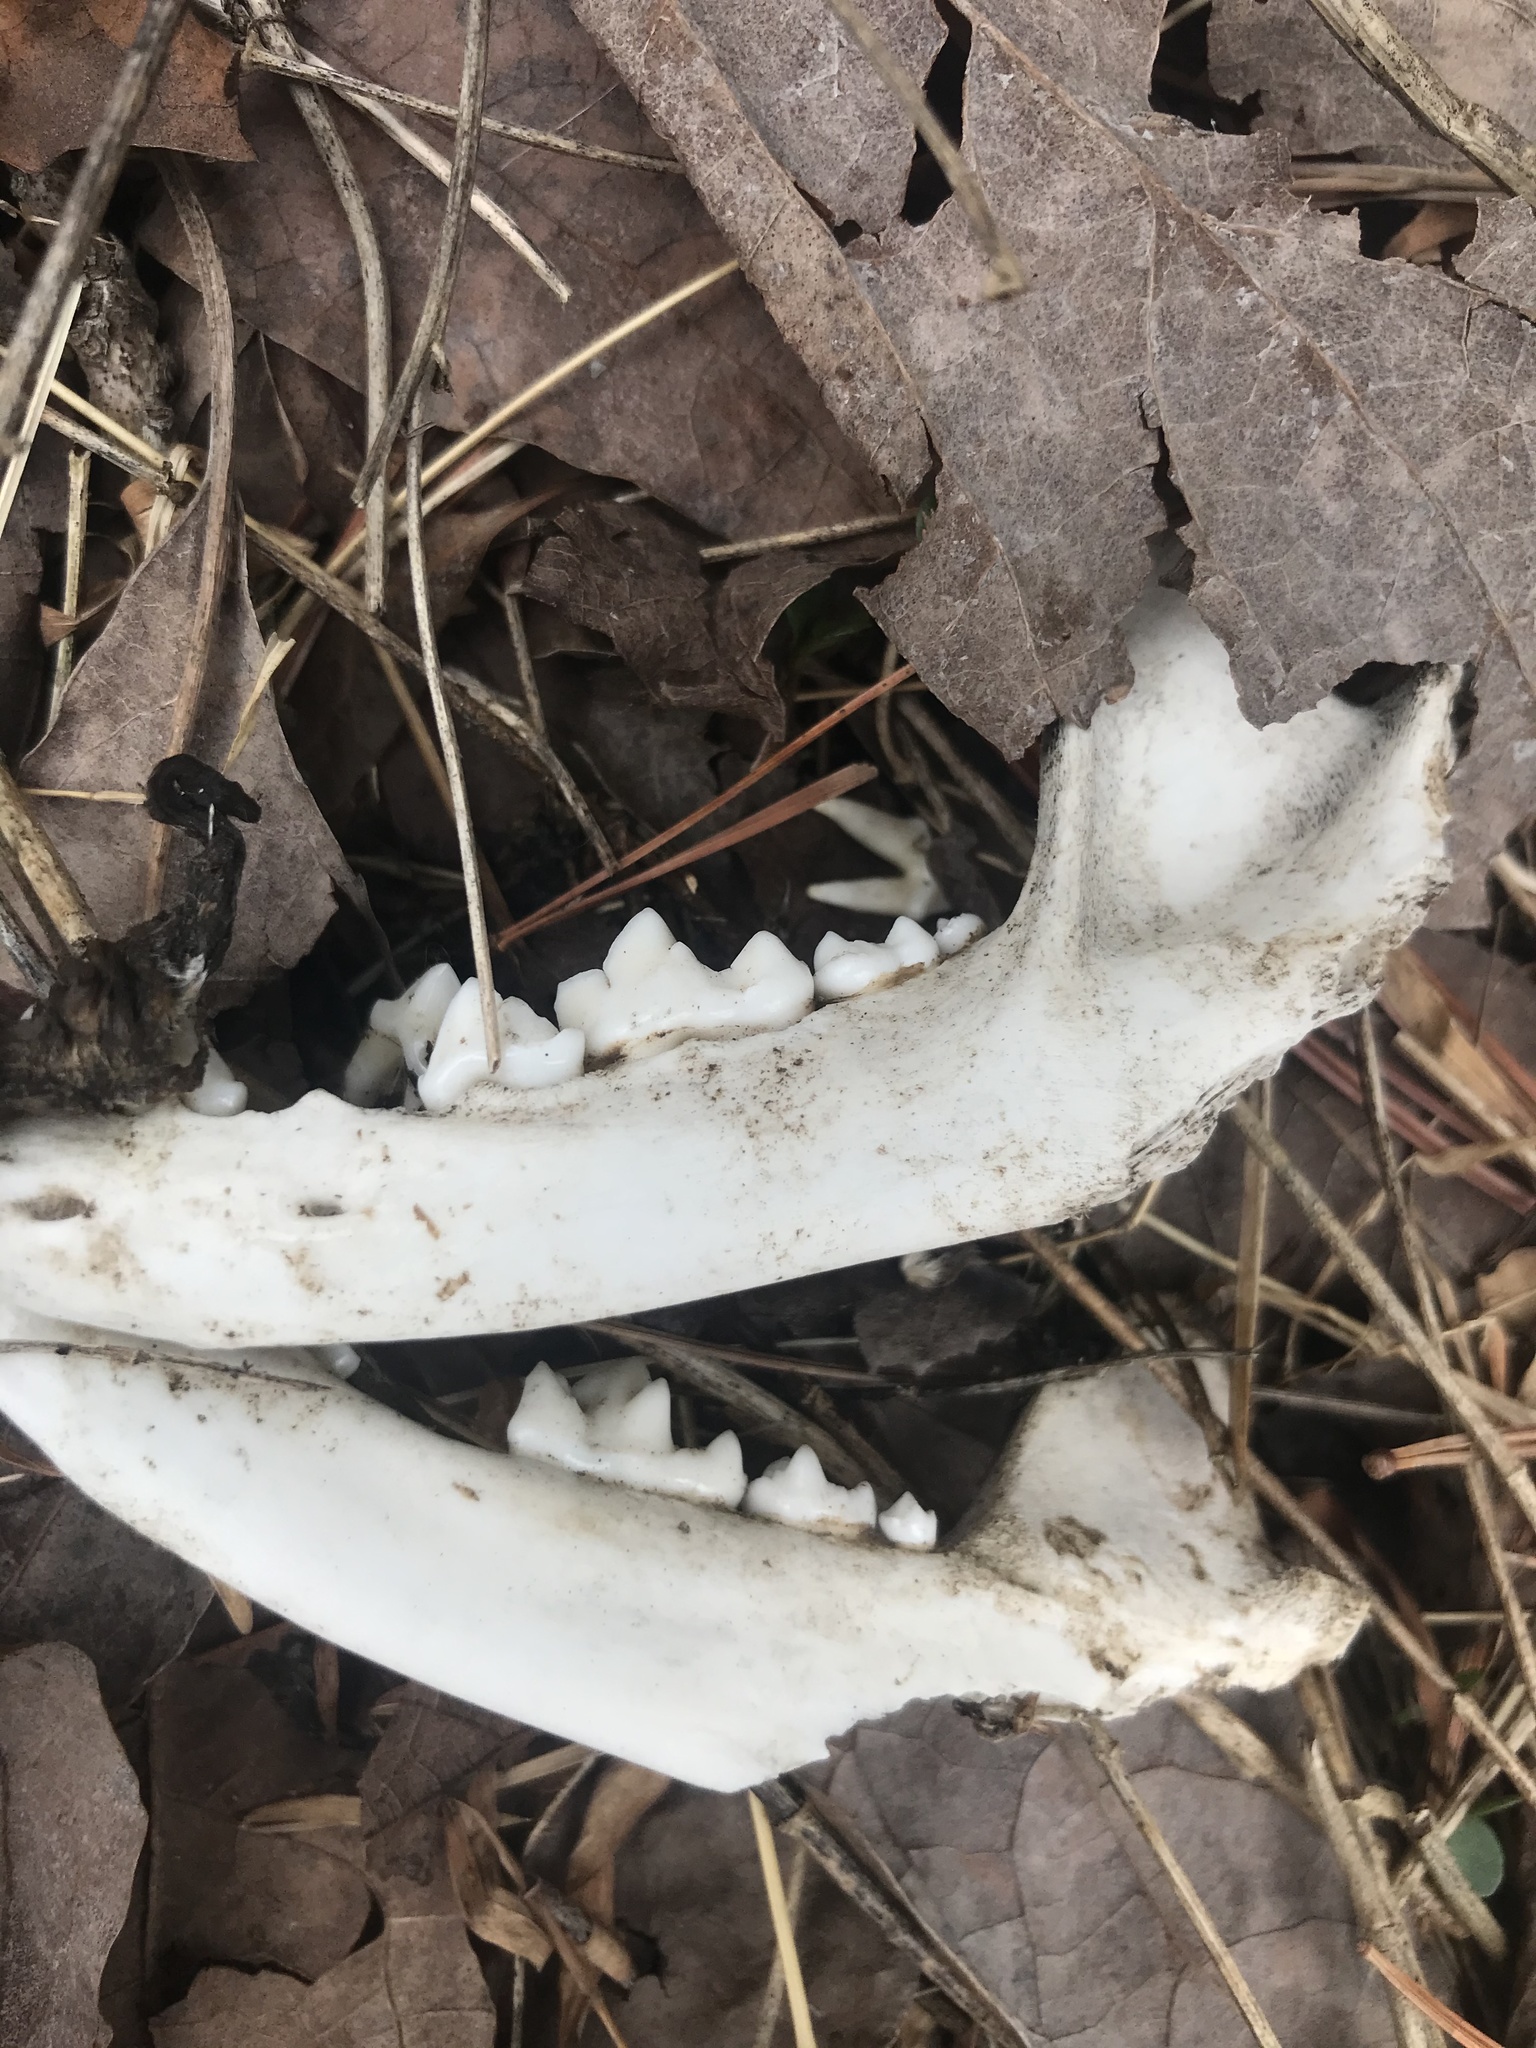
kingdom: Animalia
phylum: Chordata
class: Mammalia
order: Carnivora
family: Procyonidae
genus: Procyon
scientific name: Procyon lotor
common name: Raccoon
